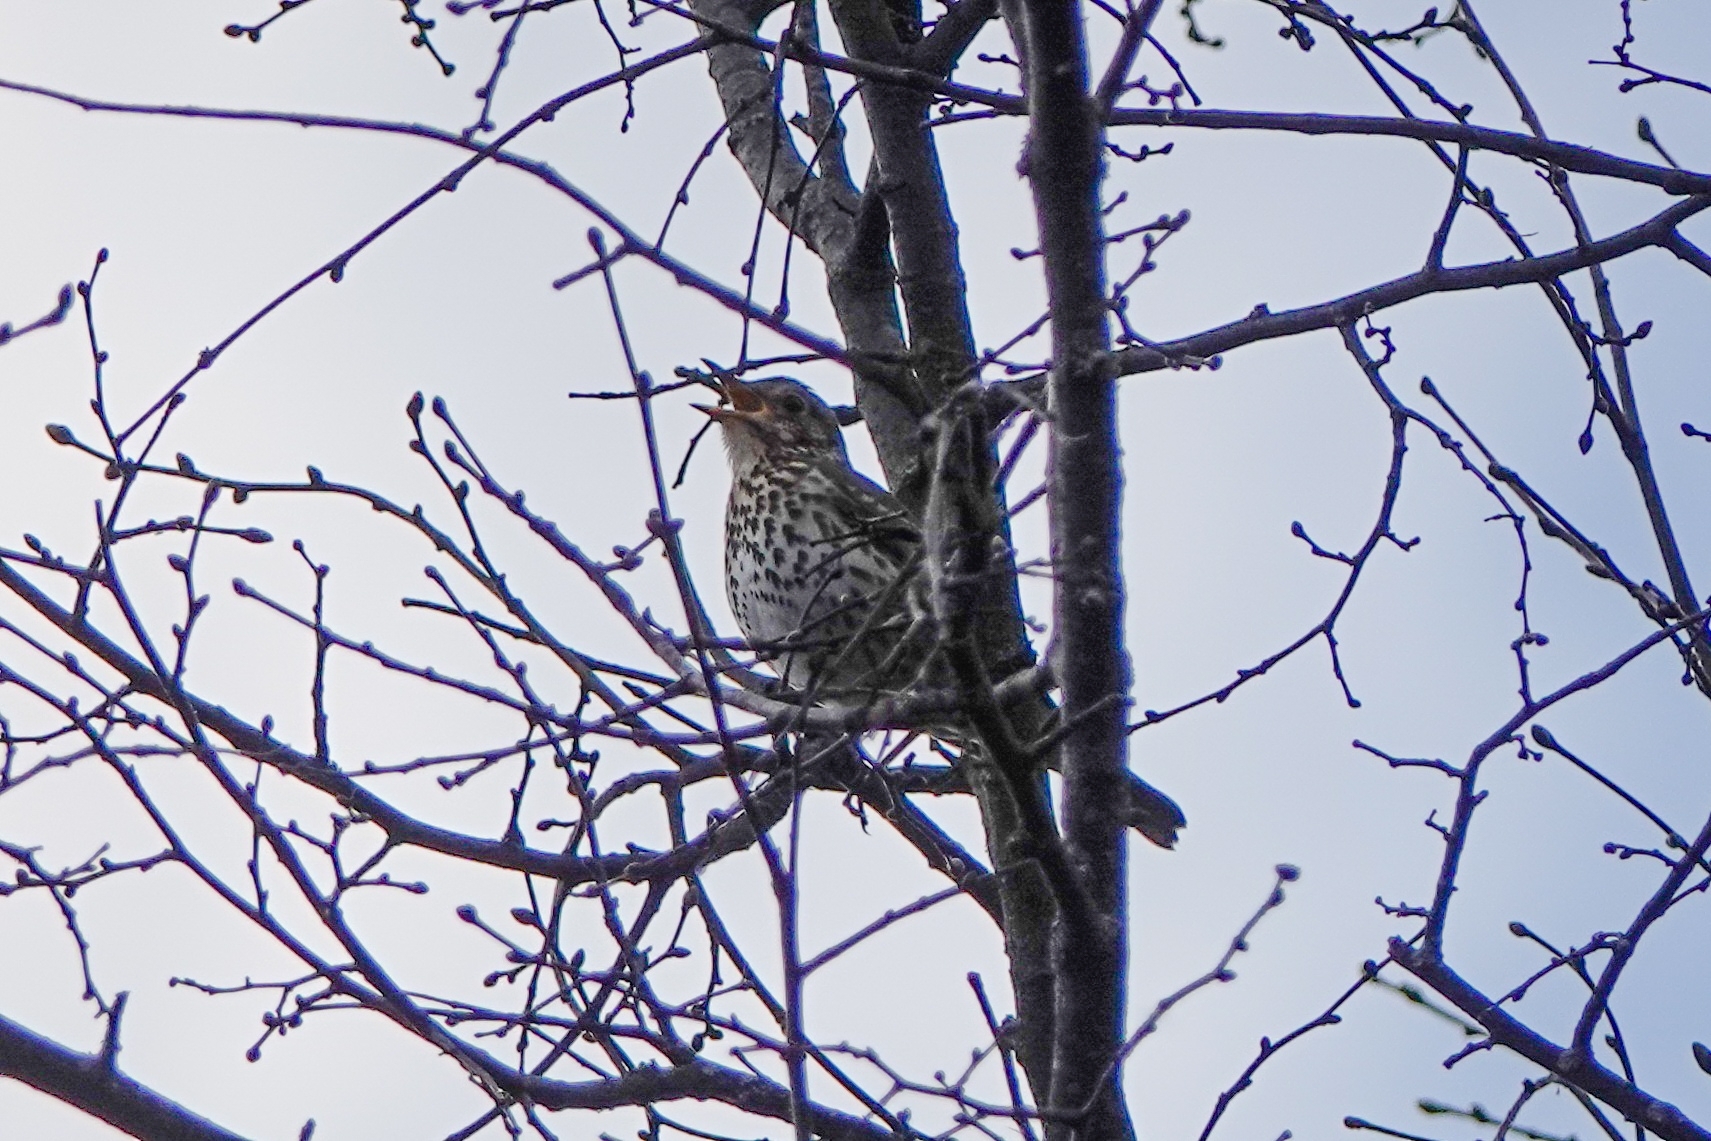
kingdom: Animalia
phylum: Chordata
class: Aves
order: Passeriformes
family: Turdidae
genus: Turdus
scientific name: Turdus philomelos
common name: Song thrush
